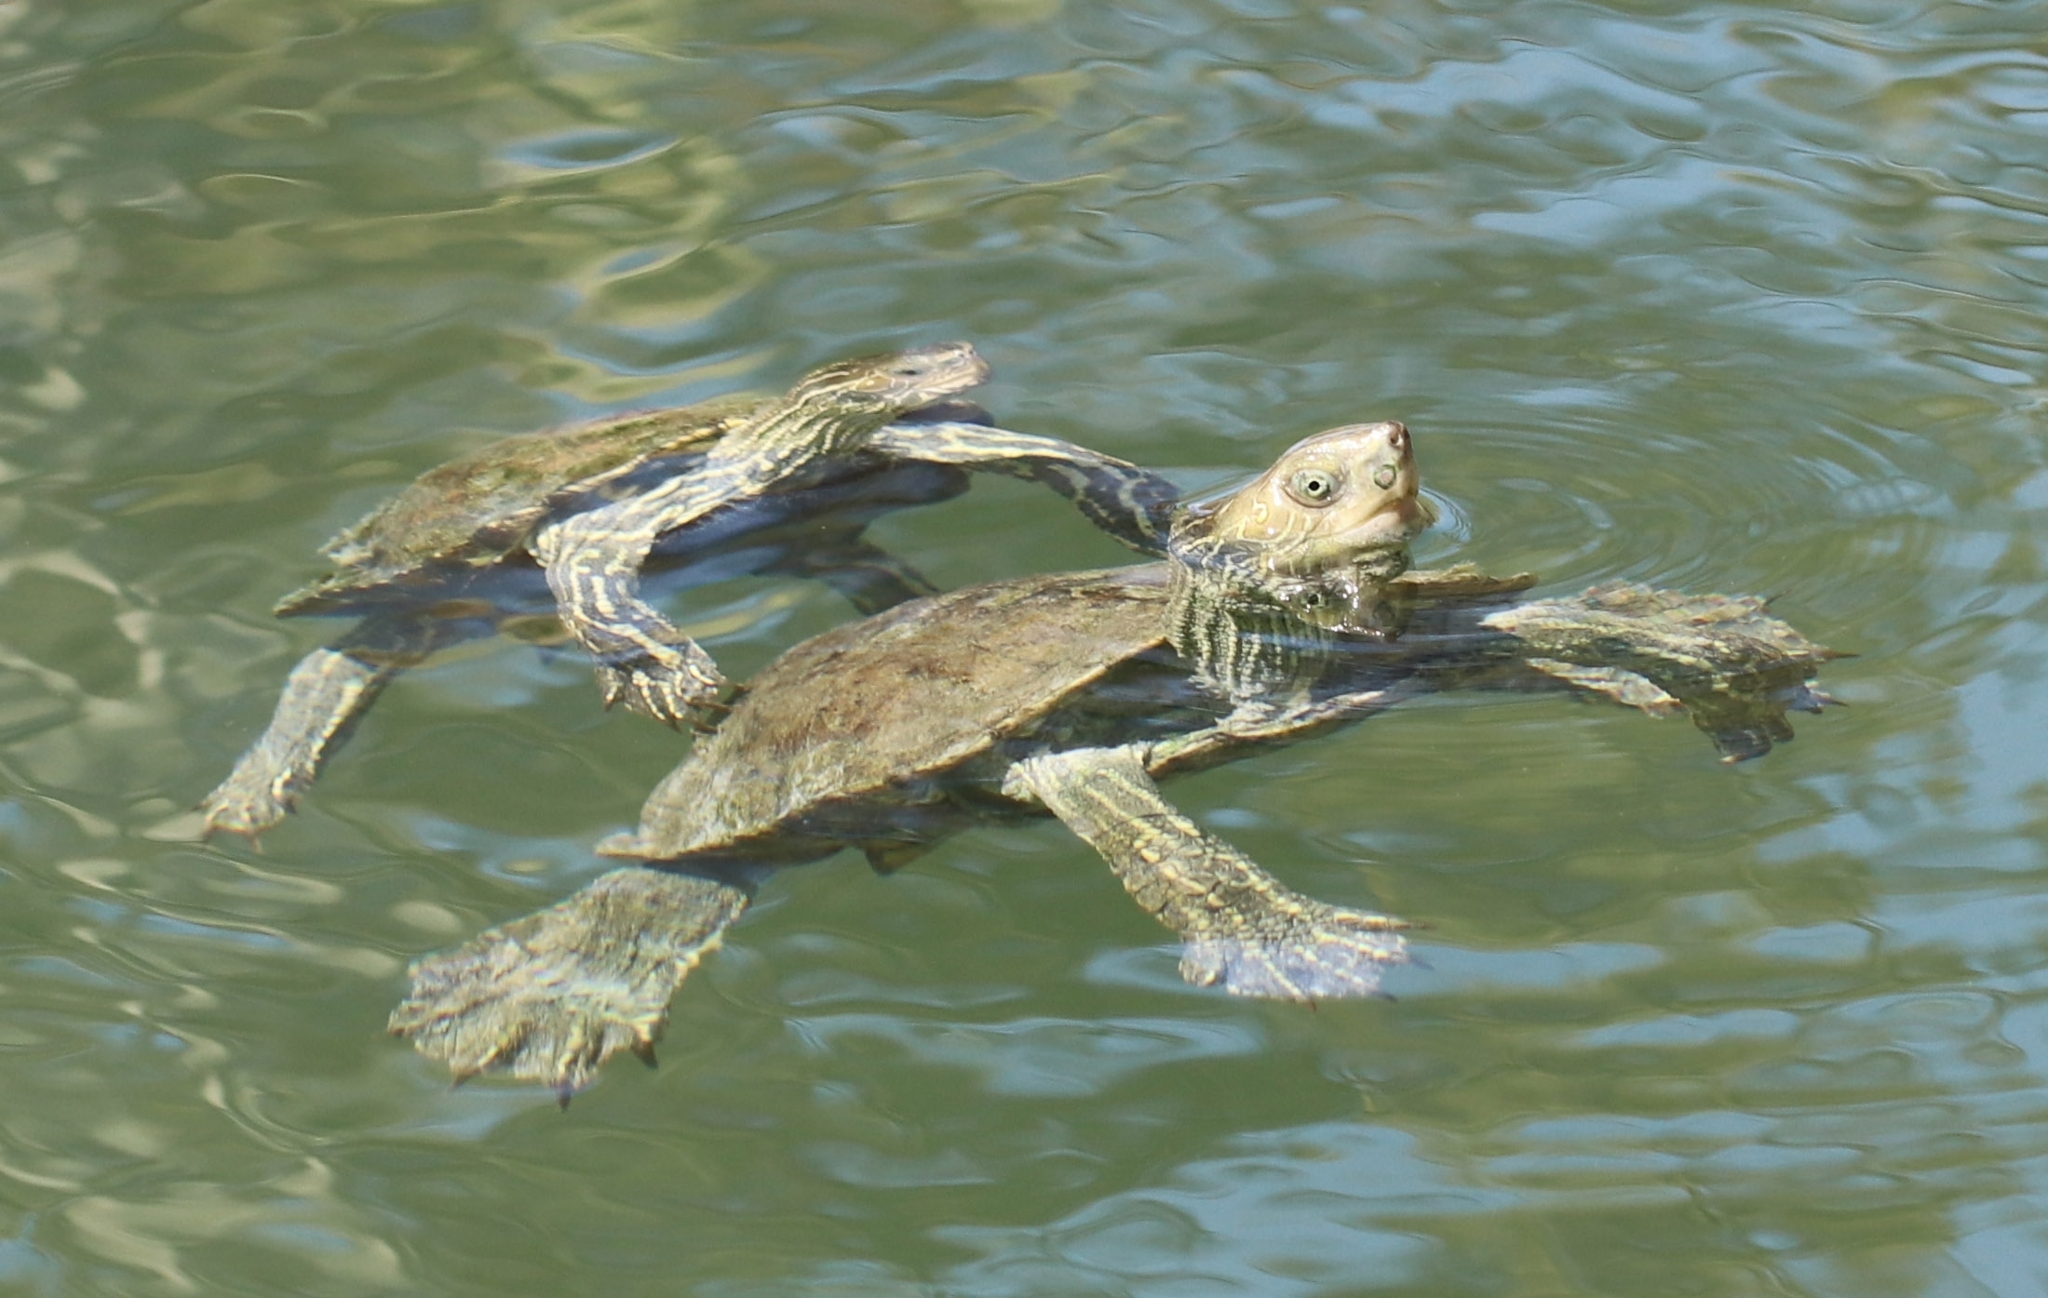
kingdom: Animalia
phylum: Chordata
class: Testudines
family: Geoemydidae
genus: Mauremys
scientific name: Mauremys rivulata
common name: Western caspian turtle
